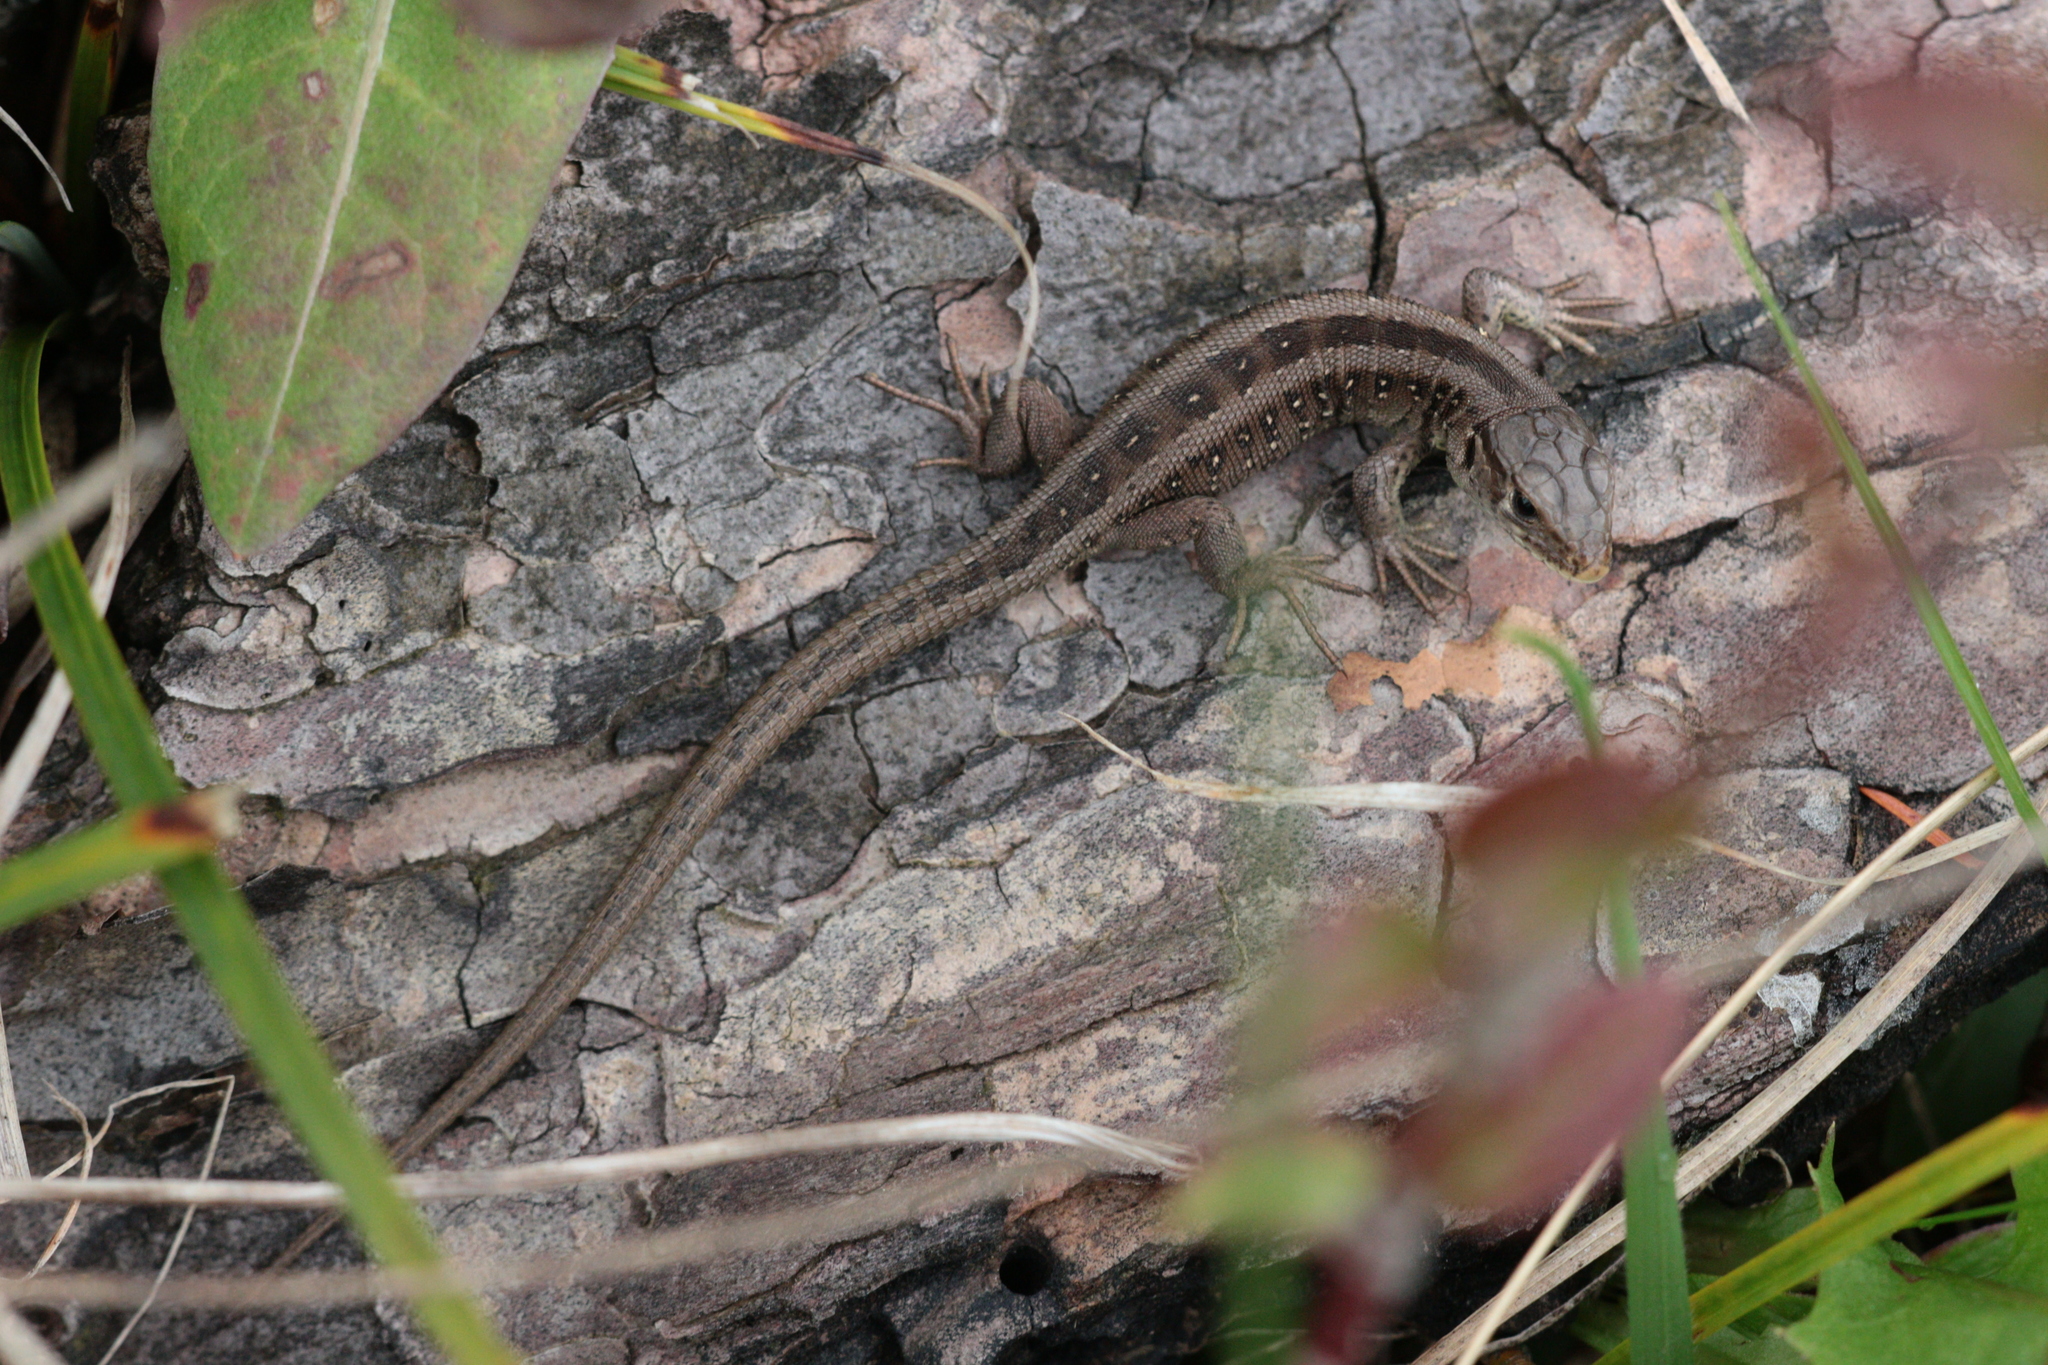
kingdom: Animalia
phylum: Chordata
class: Squamata
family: Lacertidae
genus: Lacerta
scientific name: Lacerta agilis
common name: Sand lizard
